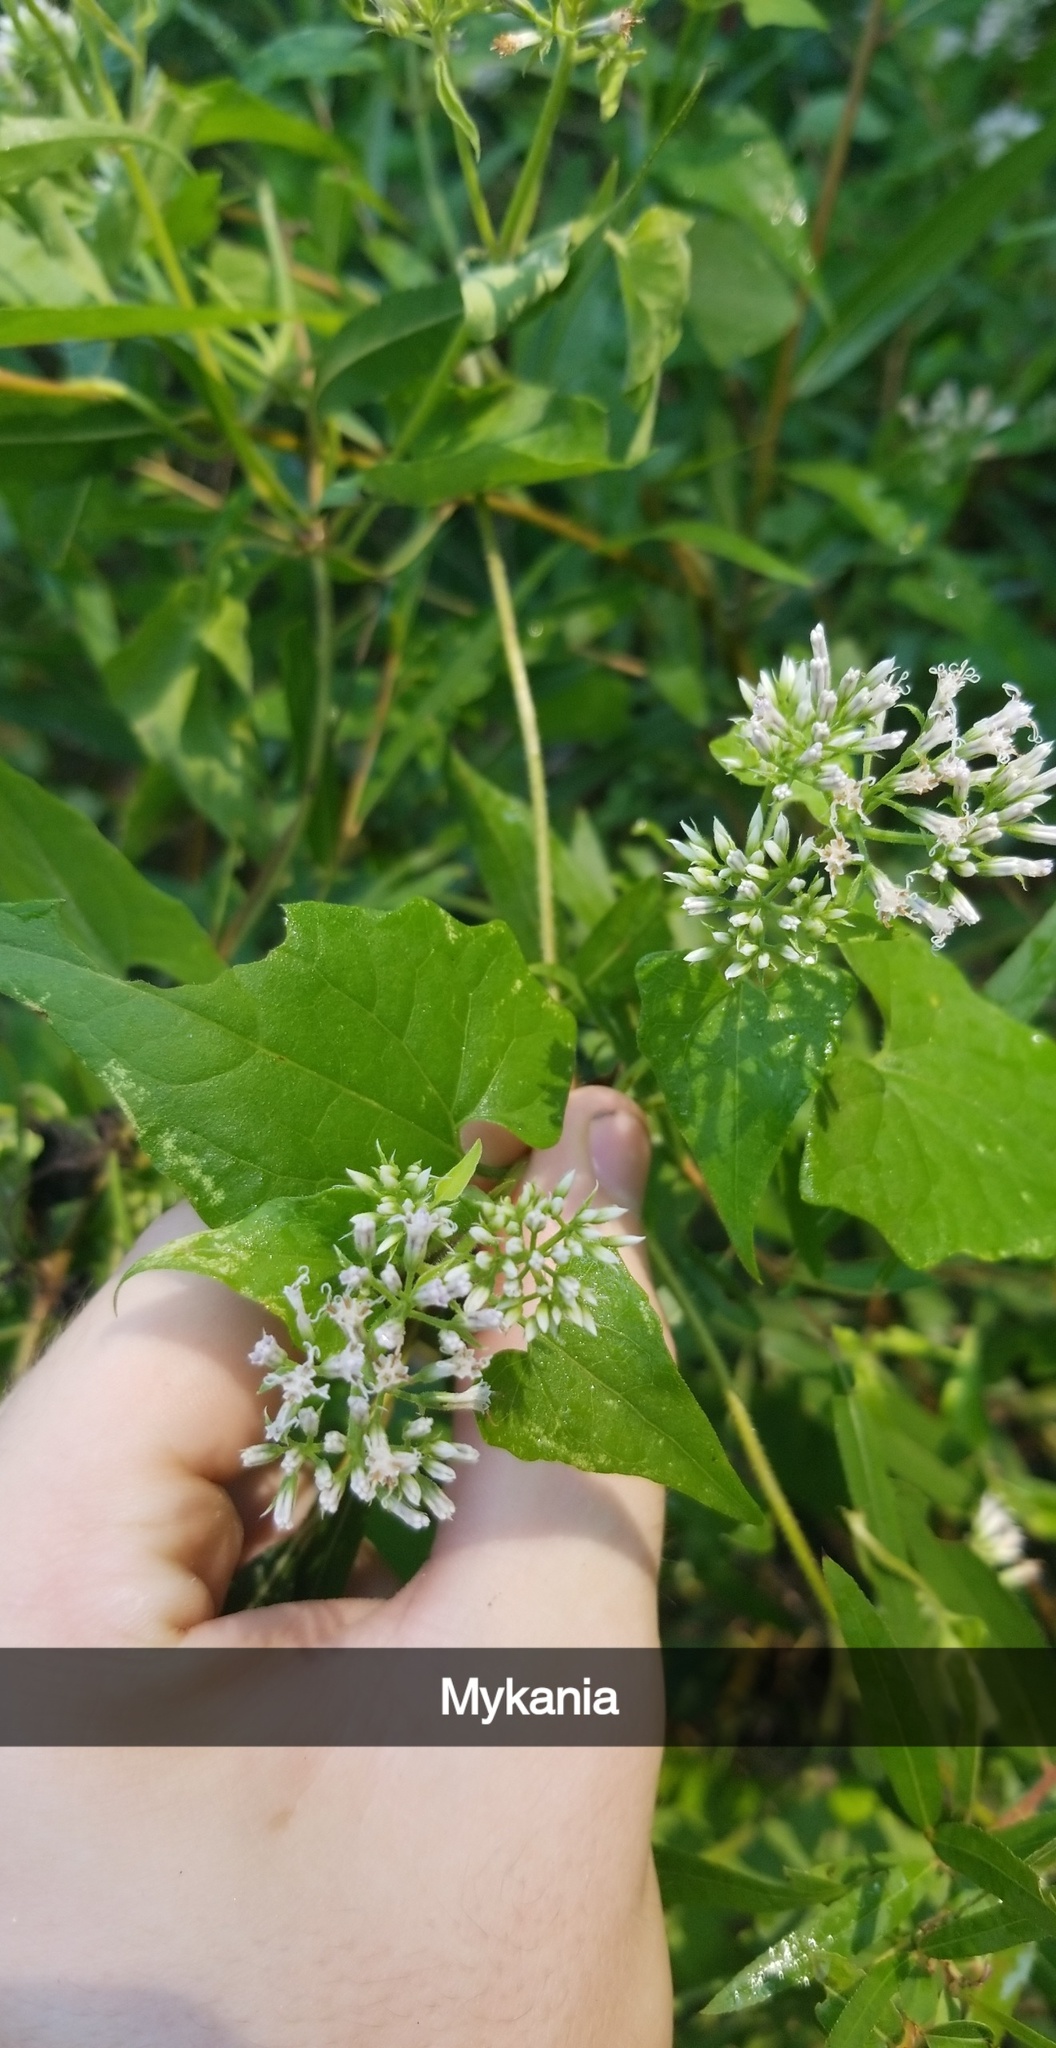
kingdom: Plantae
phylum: Tracheophyta
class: Magnoliopsida
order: Asterales
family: Asteraceae
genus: Mikania
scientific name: Mikania scandens
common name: Climbing hempvine
